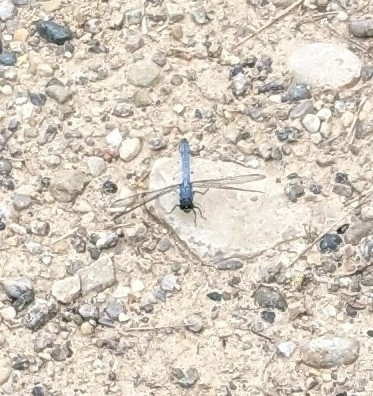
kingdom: Animalia
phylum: Arthropoda
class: Insecta
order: Odonata
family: Libellulidae
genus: Erythemis
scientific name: Erythemis simplicicollis
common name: Eastern pondhawk
